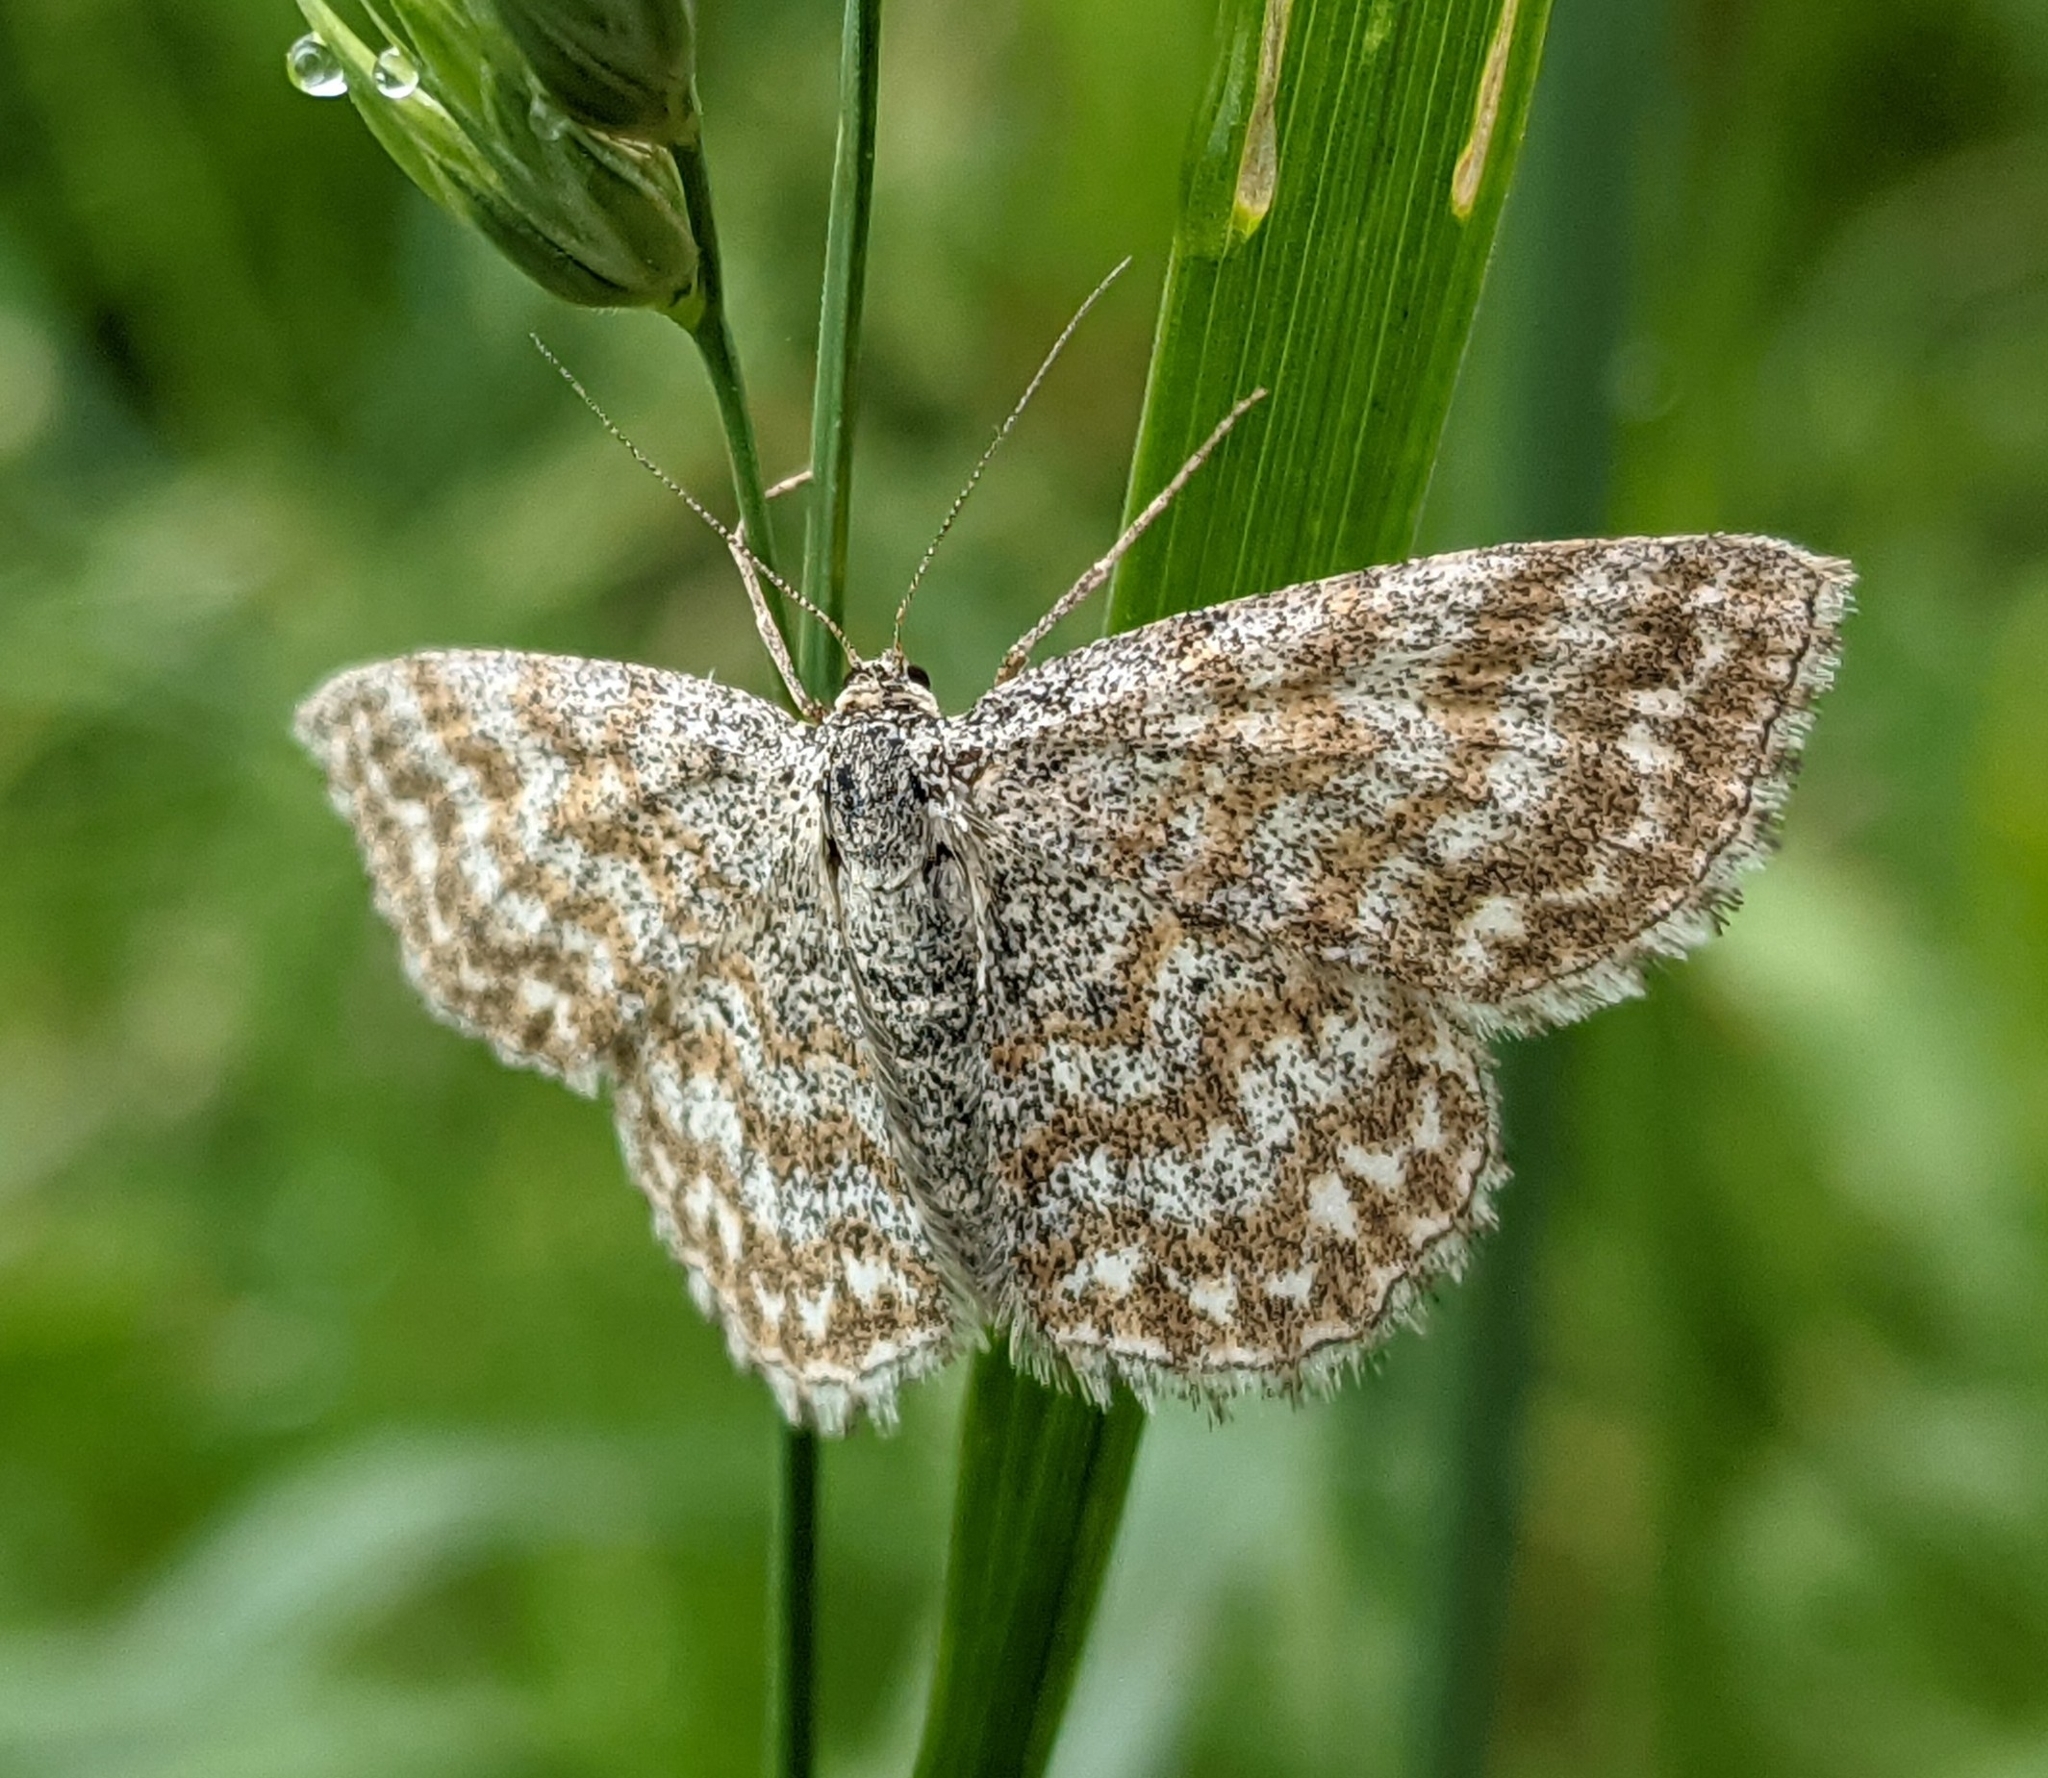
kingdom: Animalia
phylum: Arthropoda
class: Insecta
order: Lepidoptera
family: Geometridae
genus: Scopula
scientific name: Scopula immorata
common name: Lewes wave
